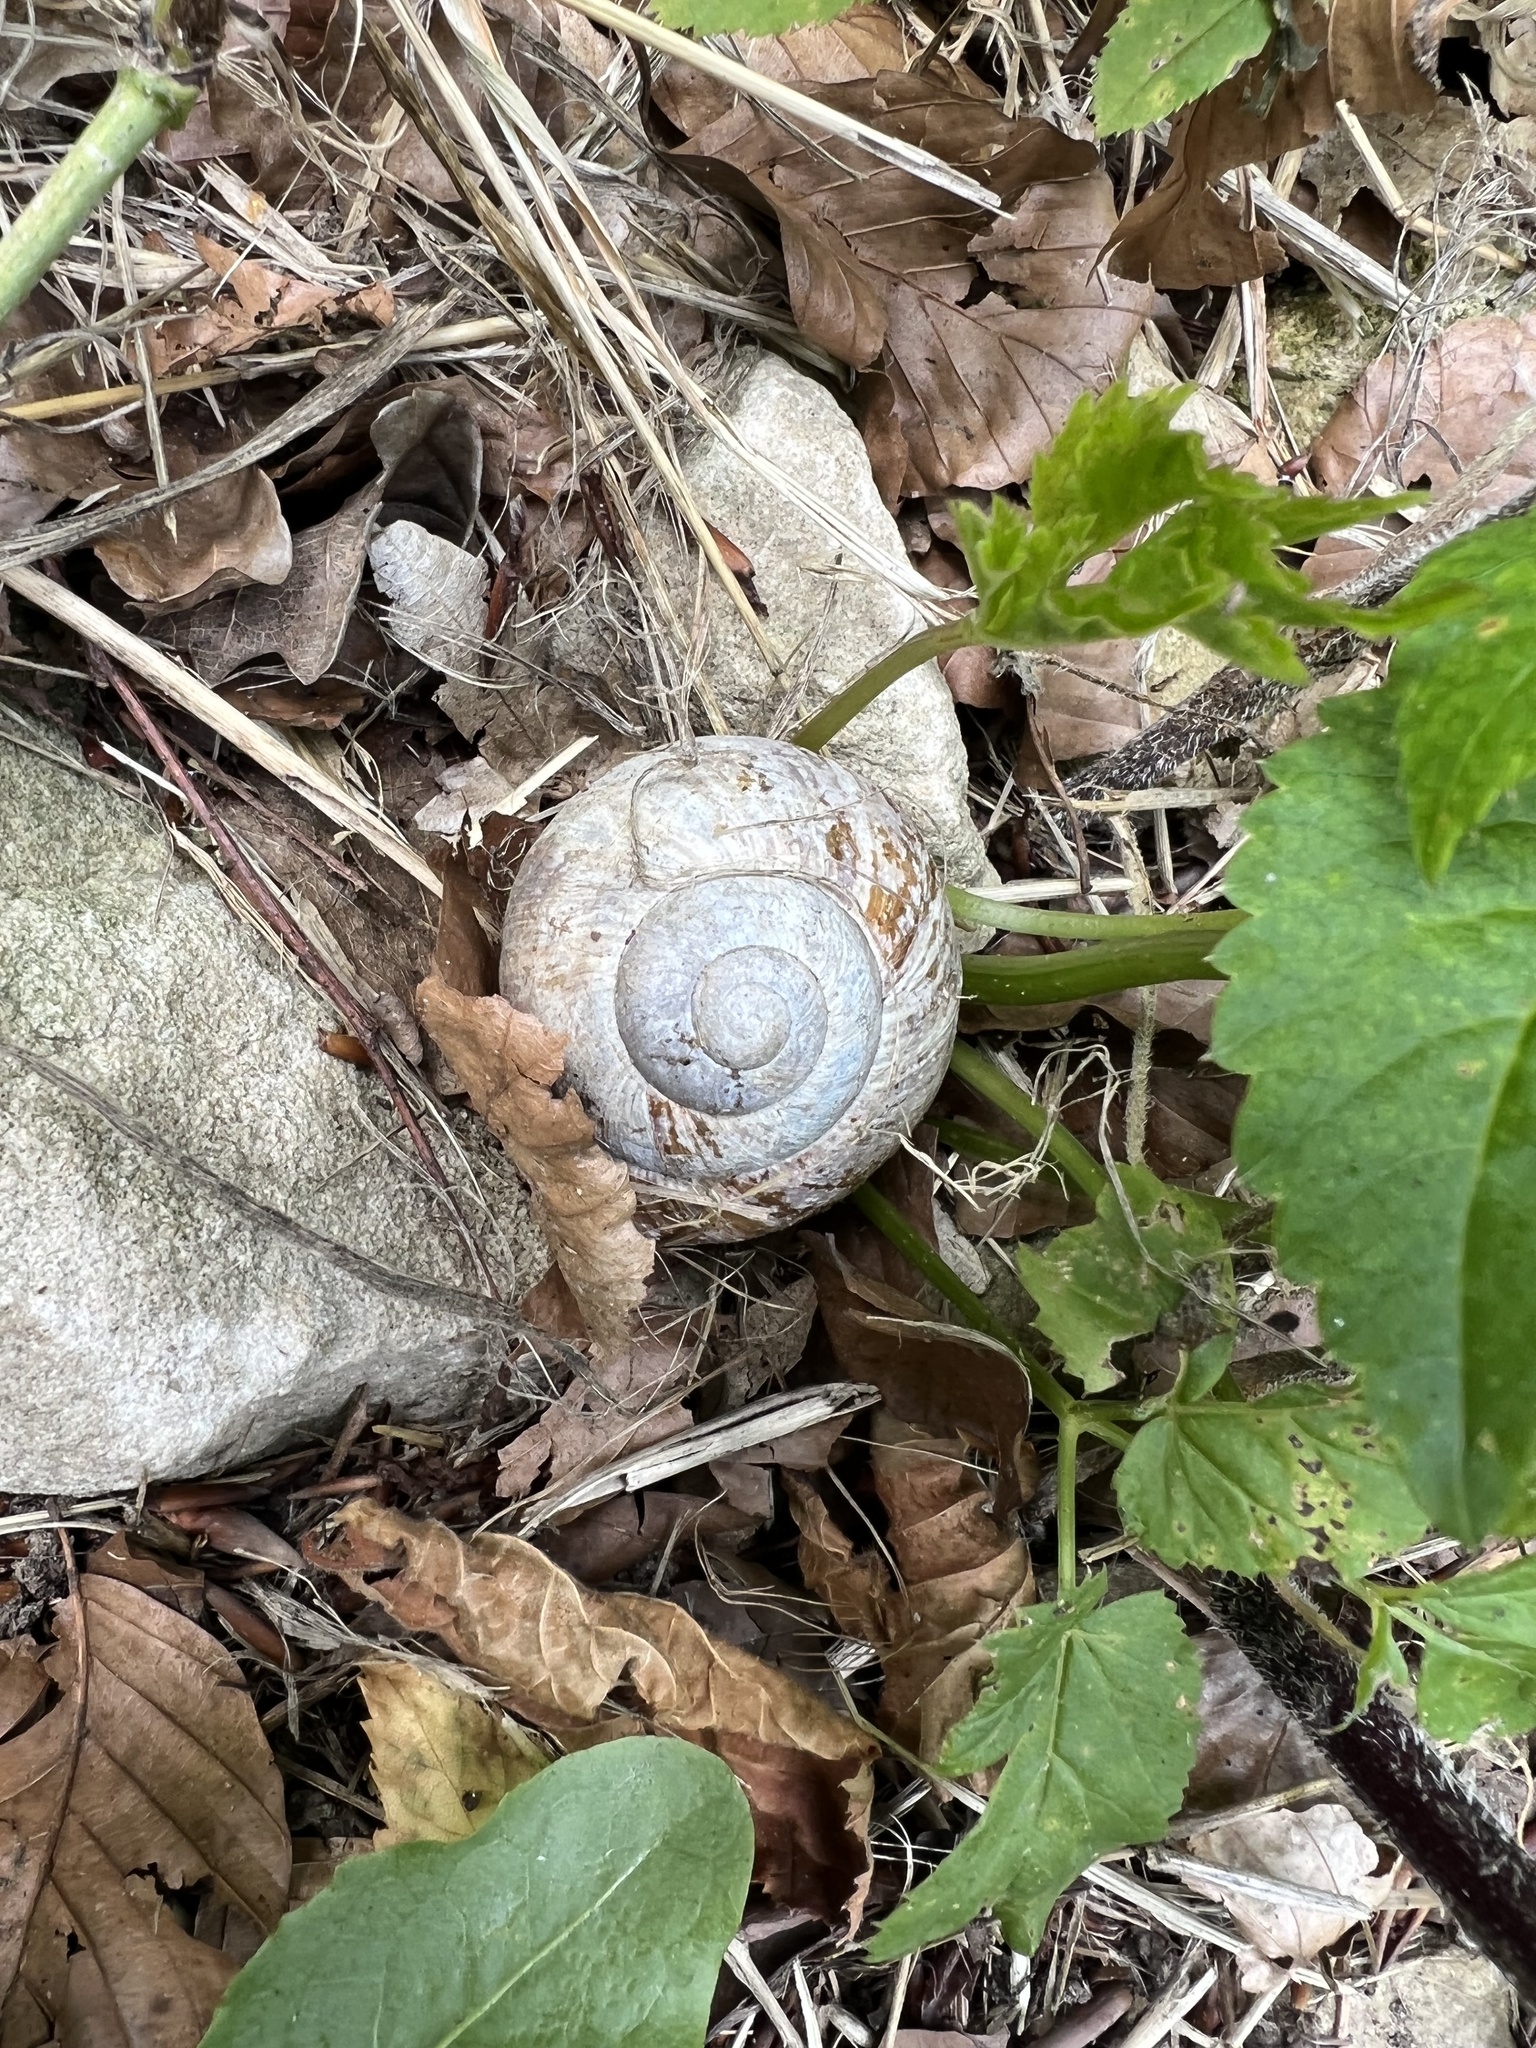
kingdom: Animalia
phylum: Mollusca
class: Gastropoda
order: Stylommatophora
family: Helicidae
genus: Helix
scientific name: Helix pomatia
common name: Roman snail
